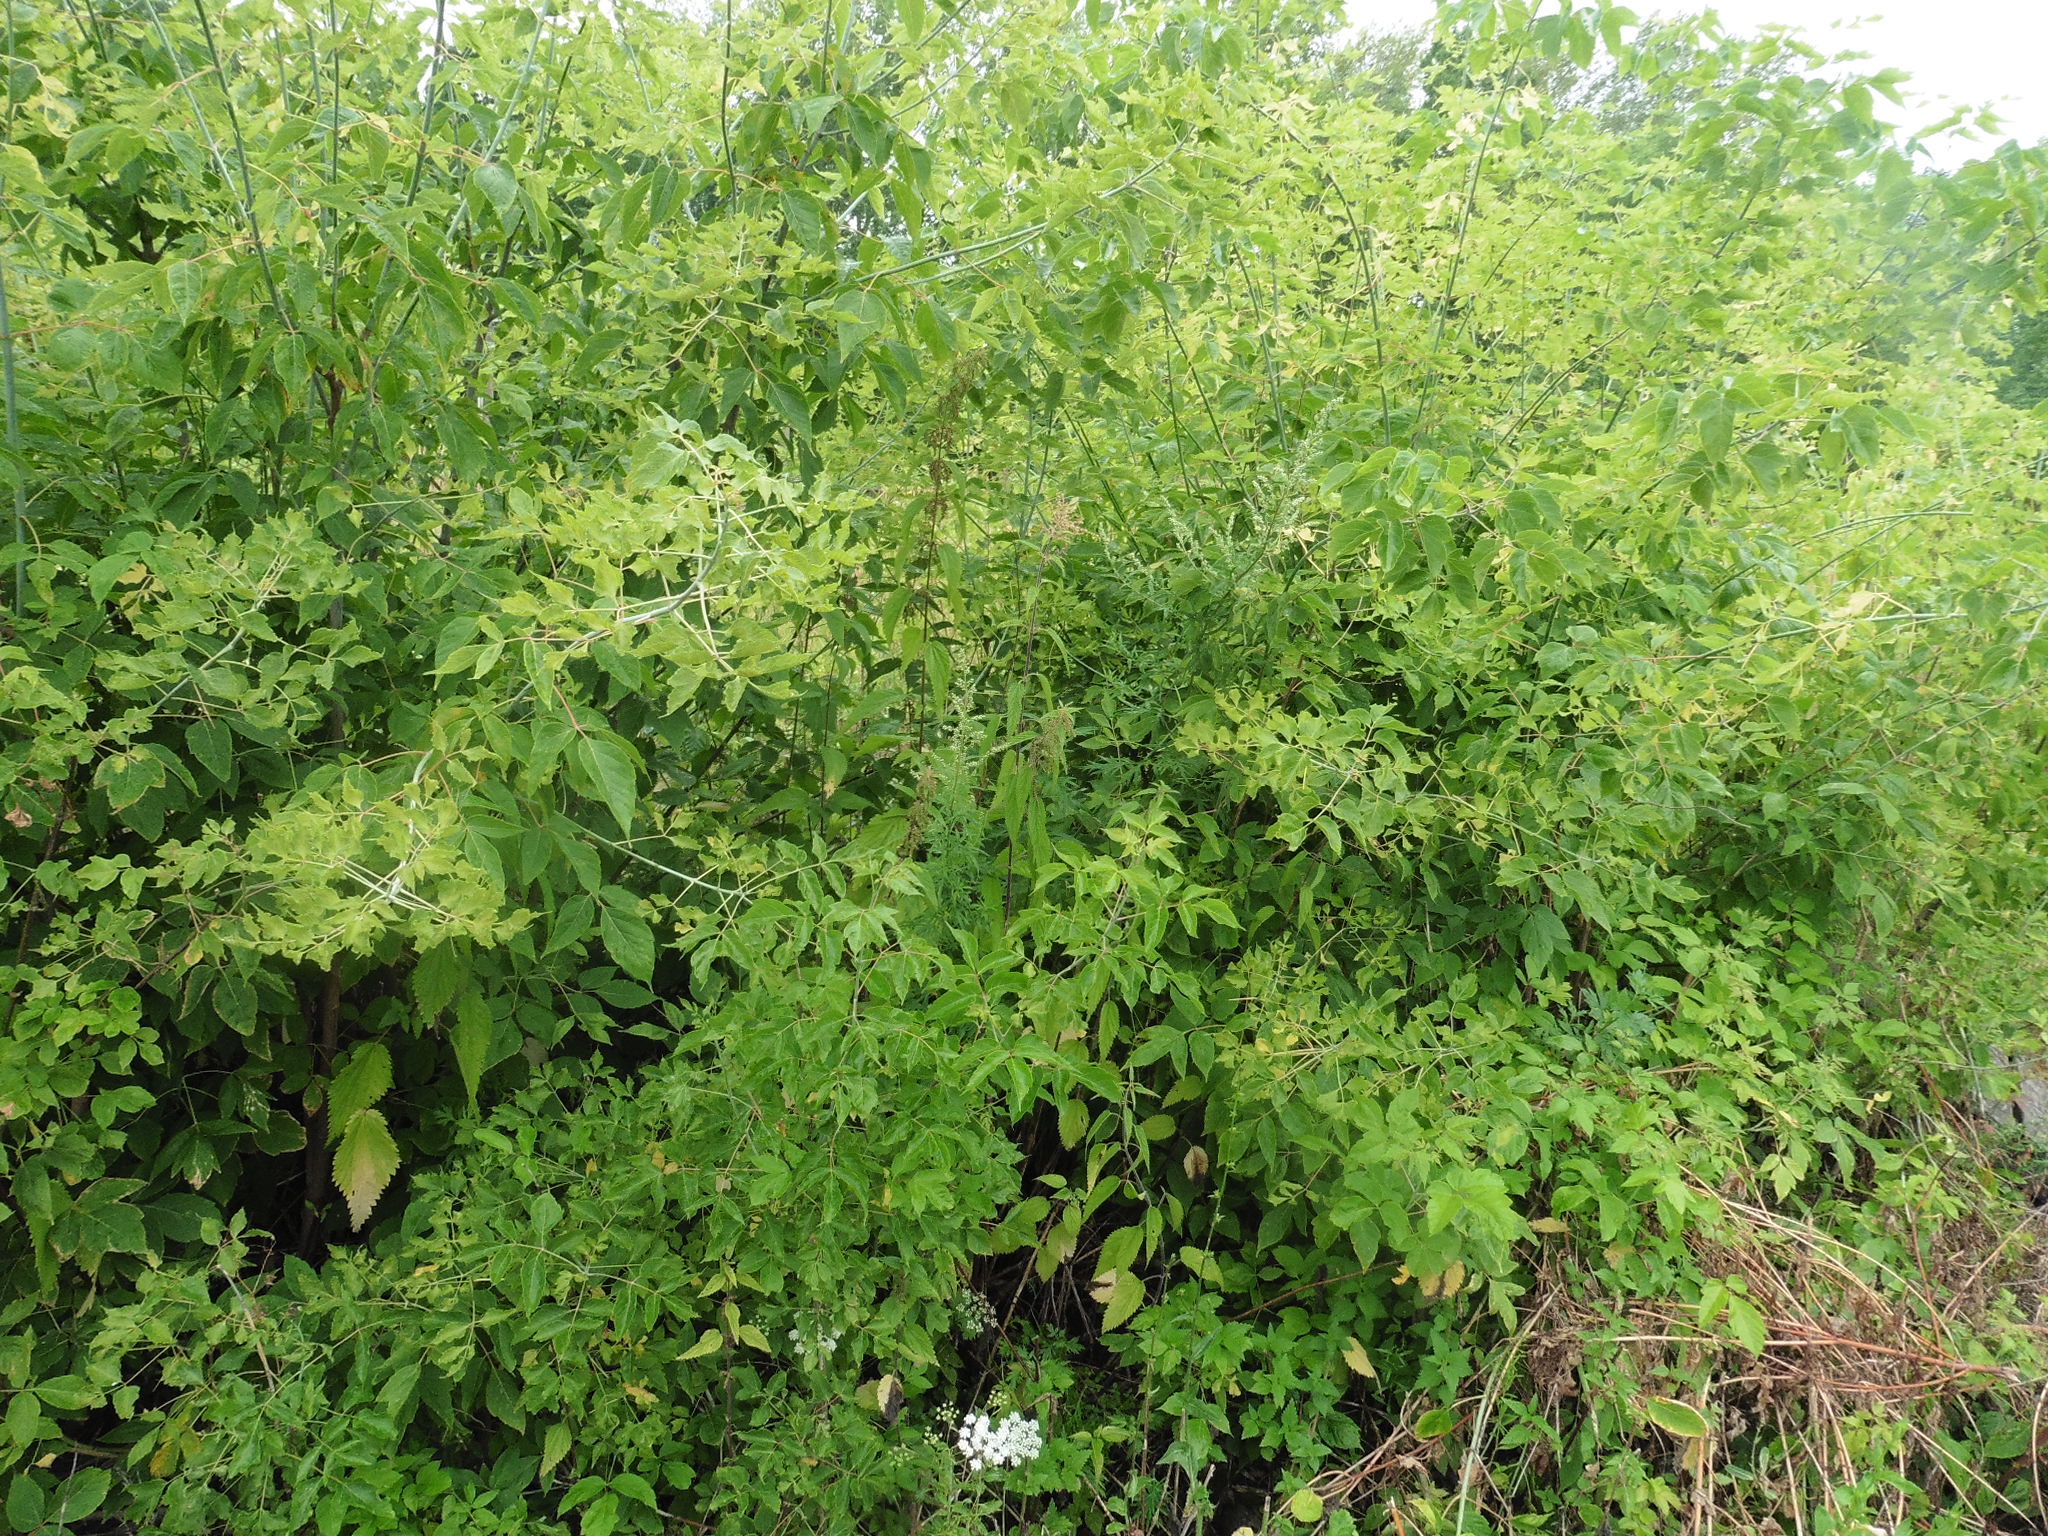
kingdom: Plantae
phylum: Tracheophyta
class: Magnoliopsida
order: Sapindales
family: Sapindaceae
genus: Acer
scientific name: Acer negundo
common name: Ashleaf maple
